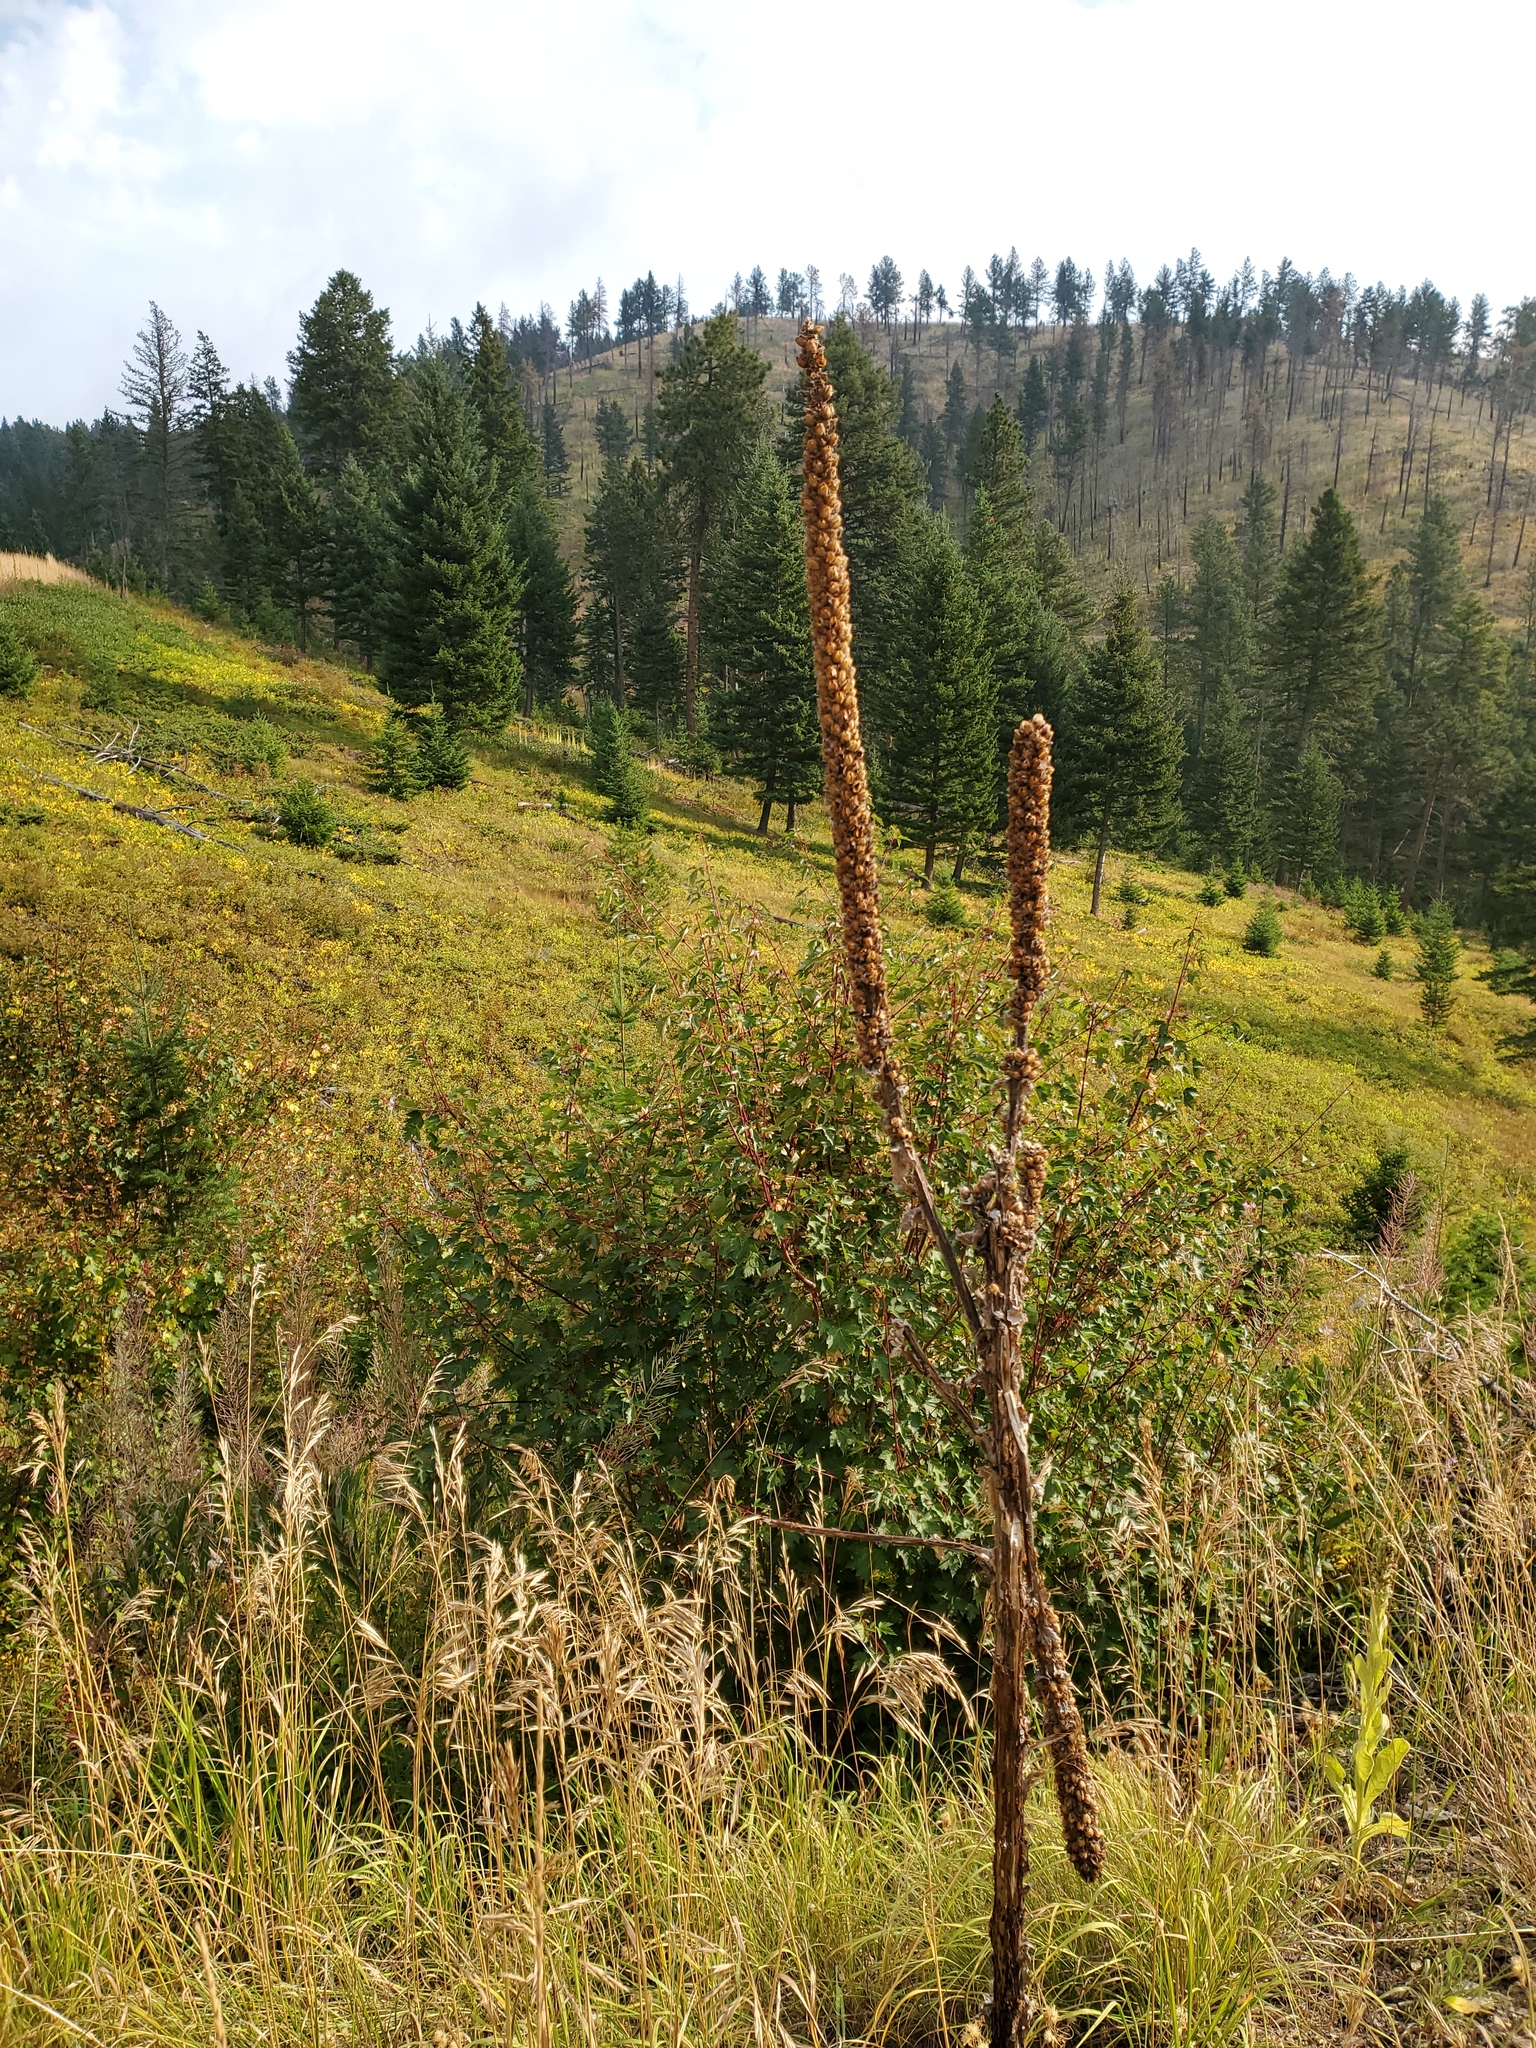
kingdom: Plantae
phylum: Tracheophyta
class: Magnoliopsida
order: Lamiales
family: Scrophulariaceae
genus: Verbascum
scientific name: Verbascum thapsus
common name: Common mullein
